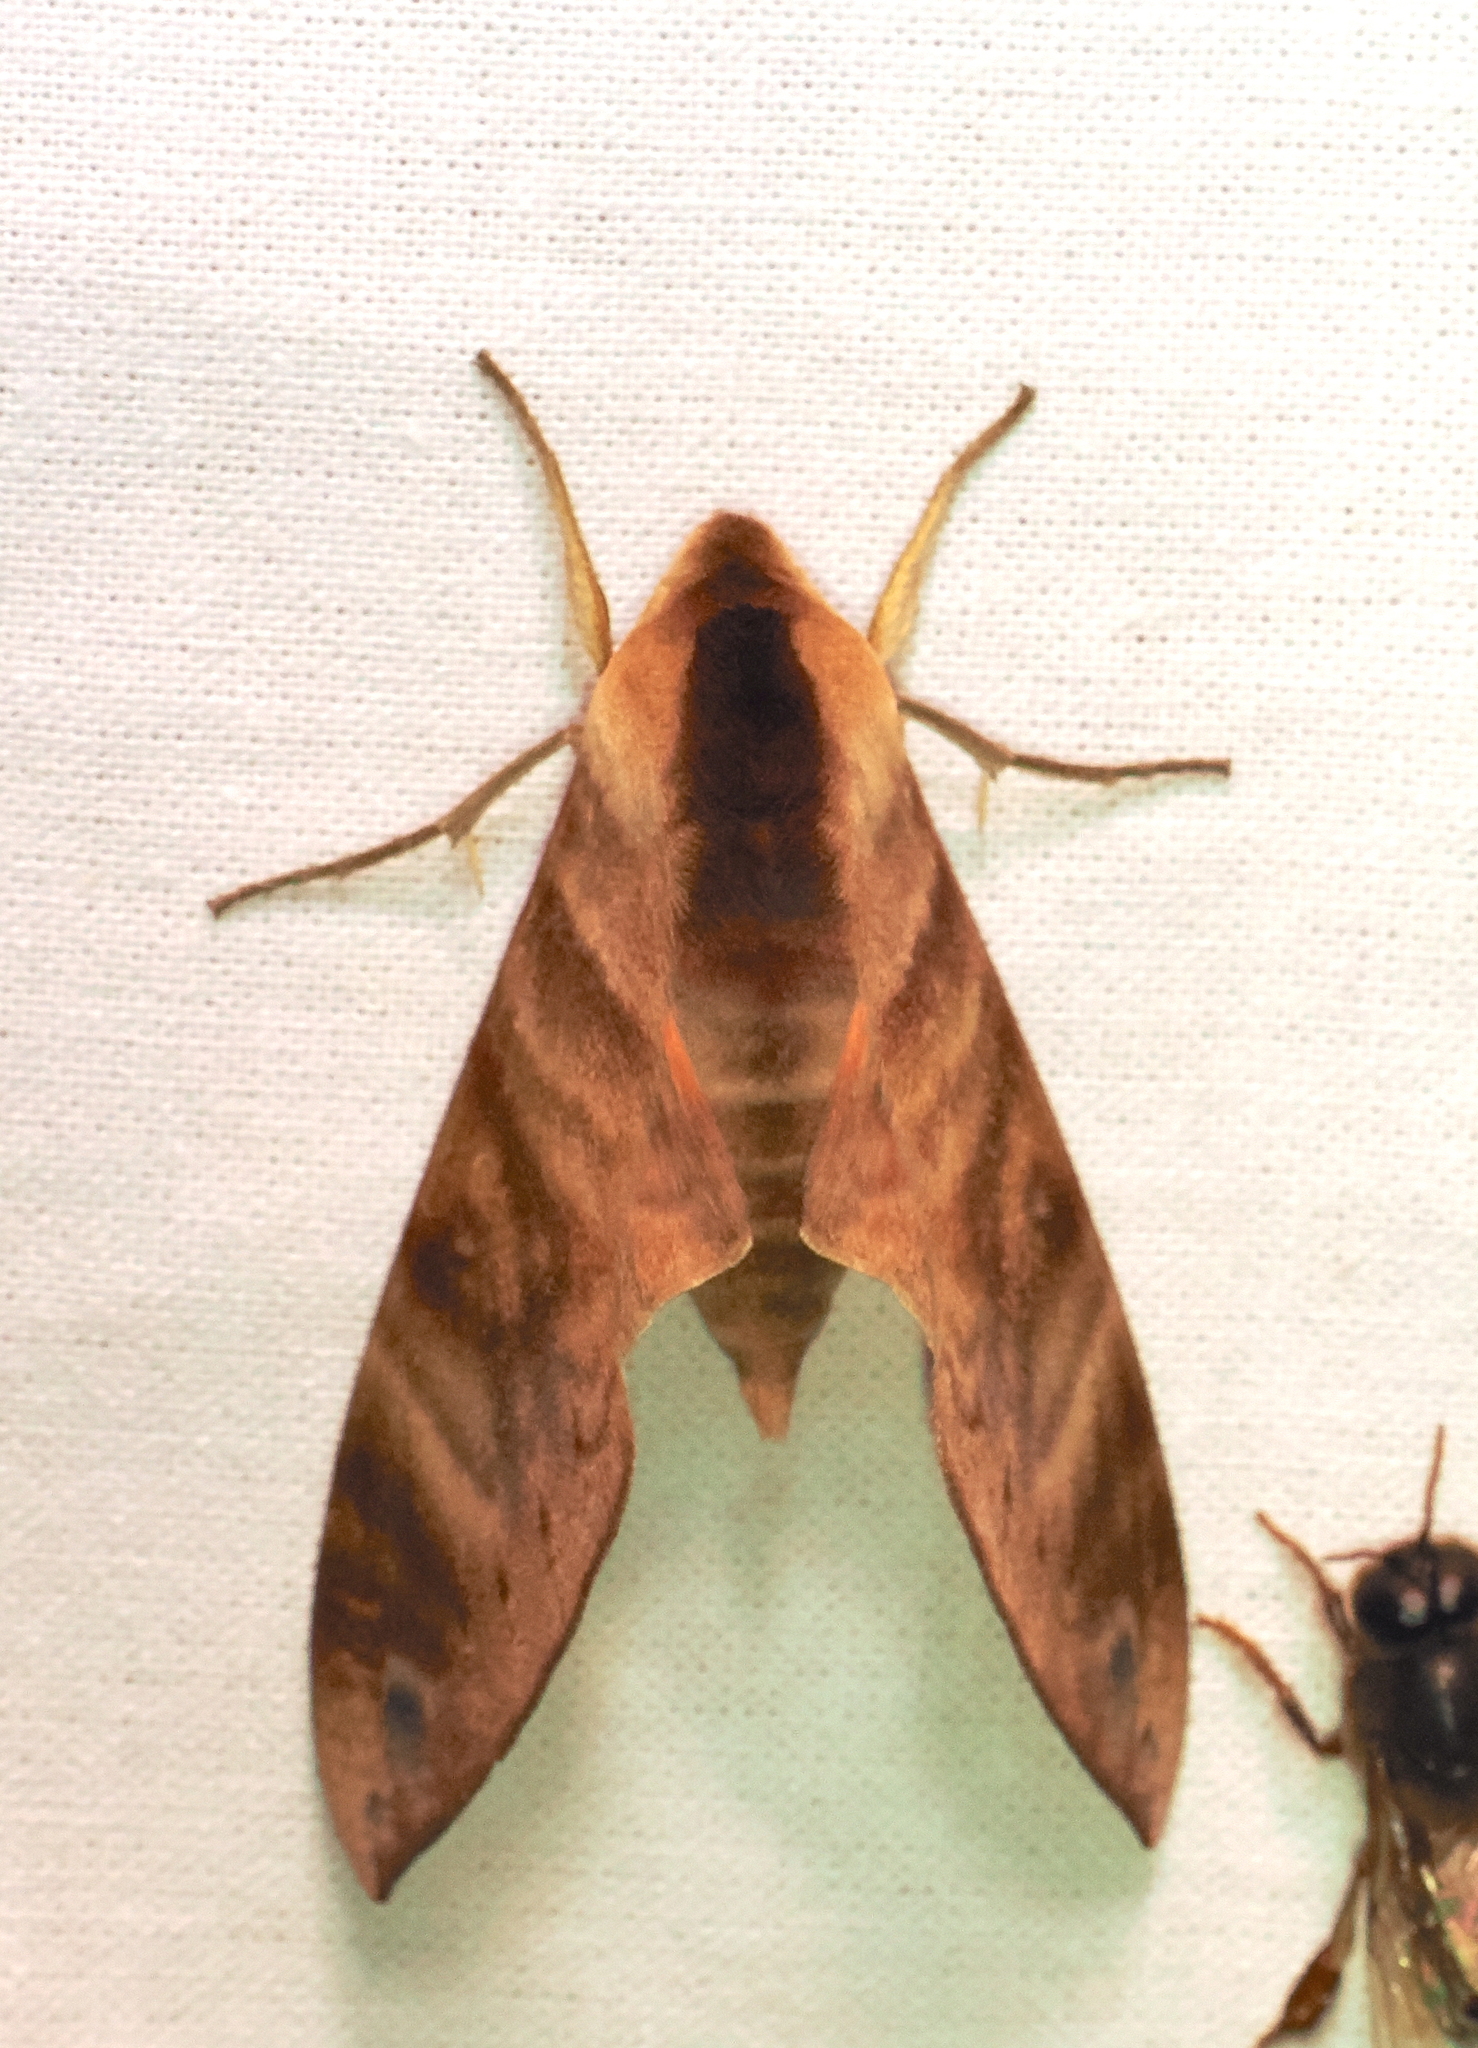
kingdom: Animalia
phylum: Arthropoda
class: Insecta
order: Lepidoptera
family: Sphingidae
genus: Opistoclanis
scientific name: Opistoclanis hawkeri
